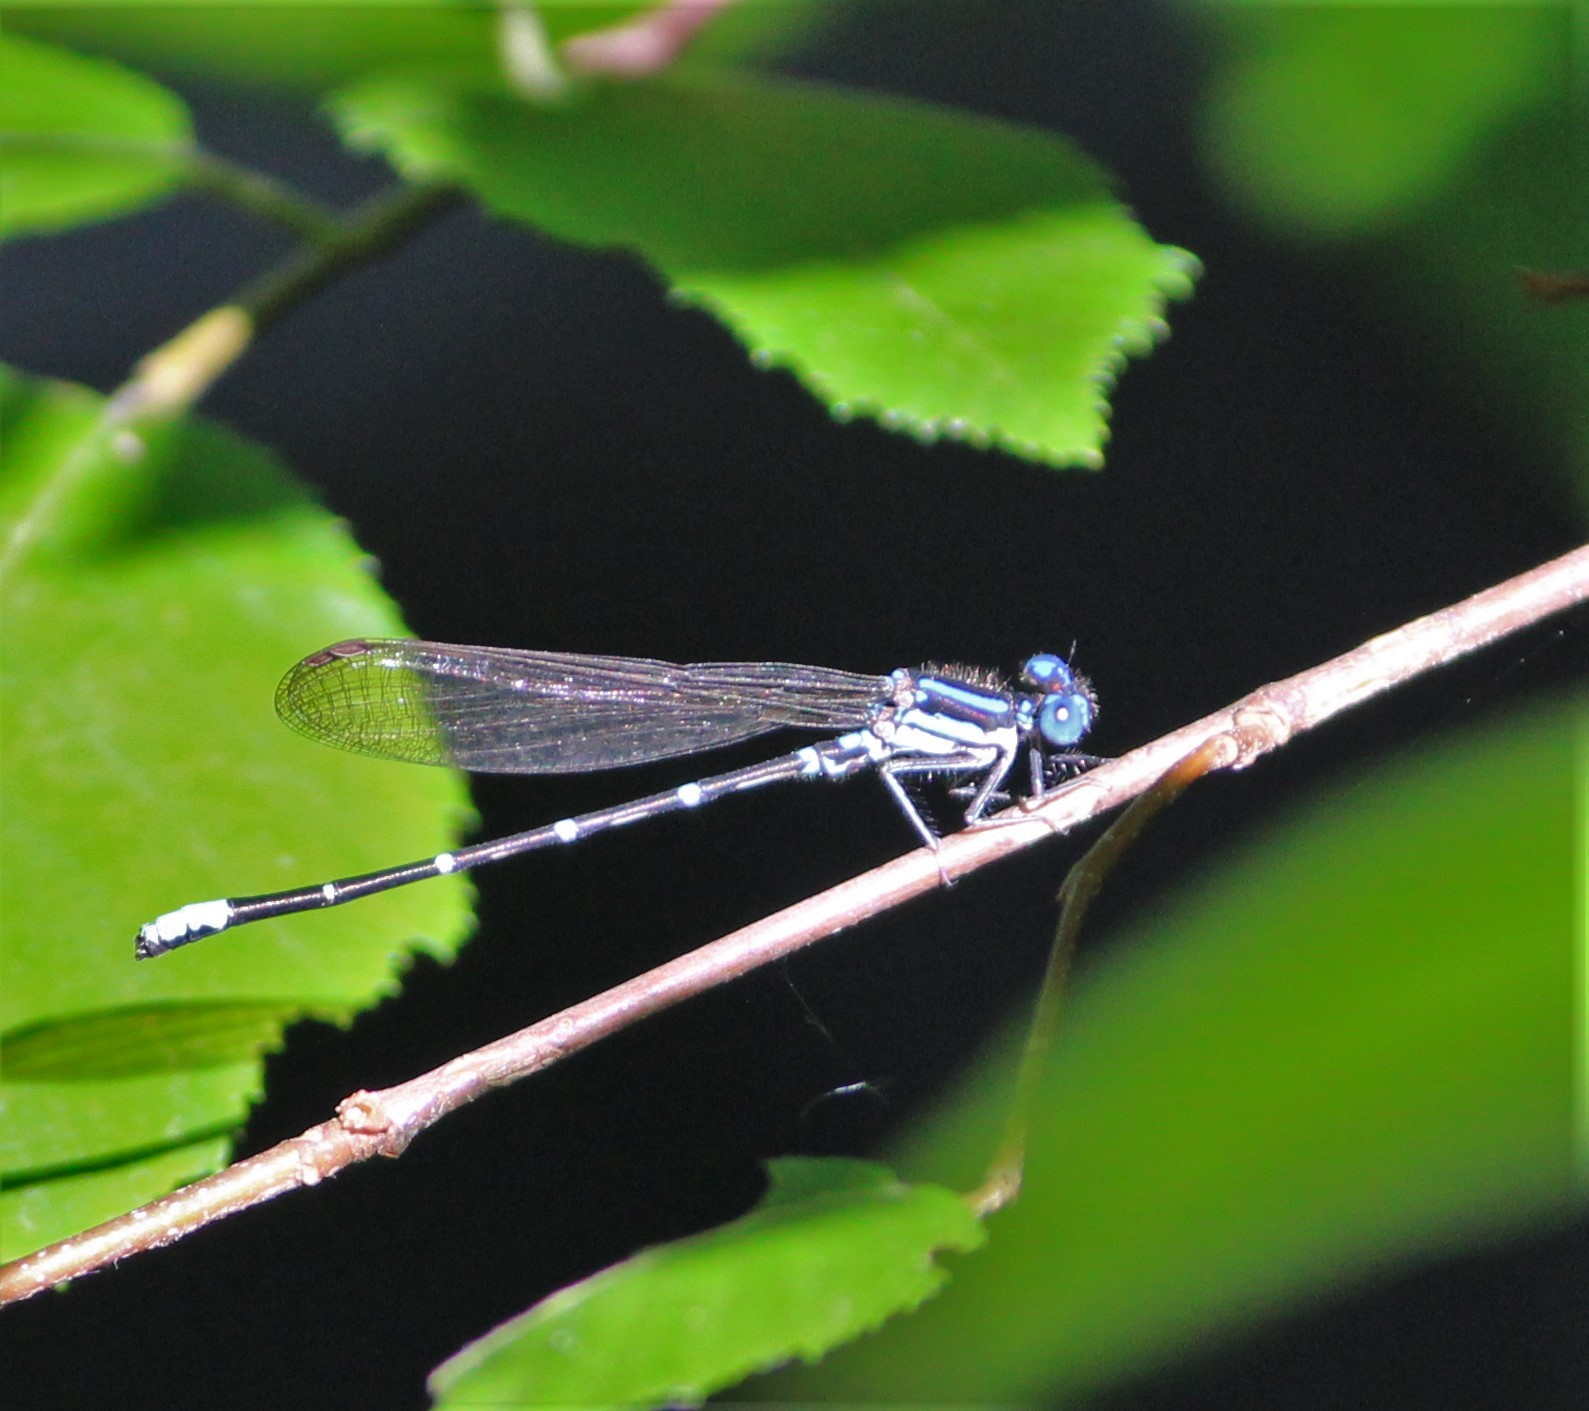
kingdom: Animalia
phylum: Arthropoda
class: Insecta
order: Odonata
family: Coenagrionidae
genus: Argia
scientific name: Argia sedula
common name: Blue-ringed dancer
